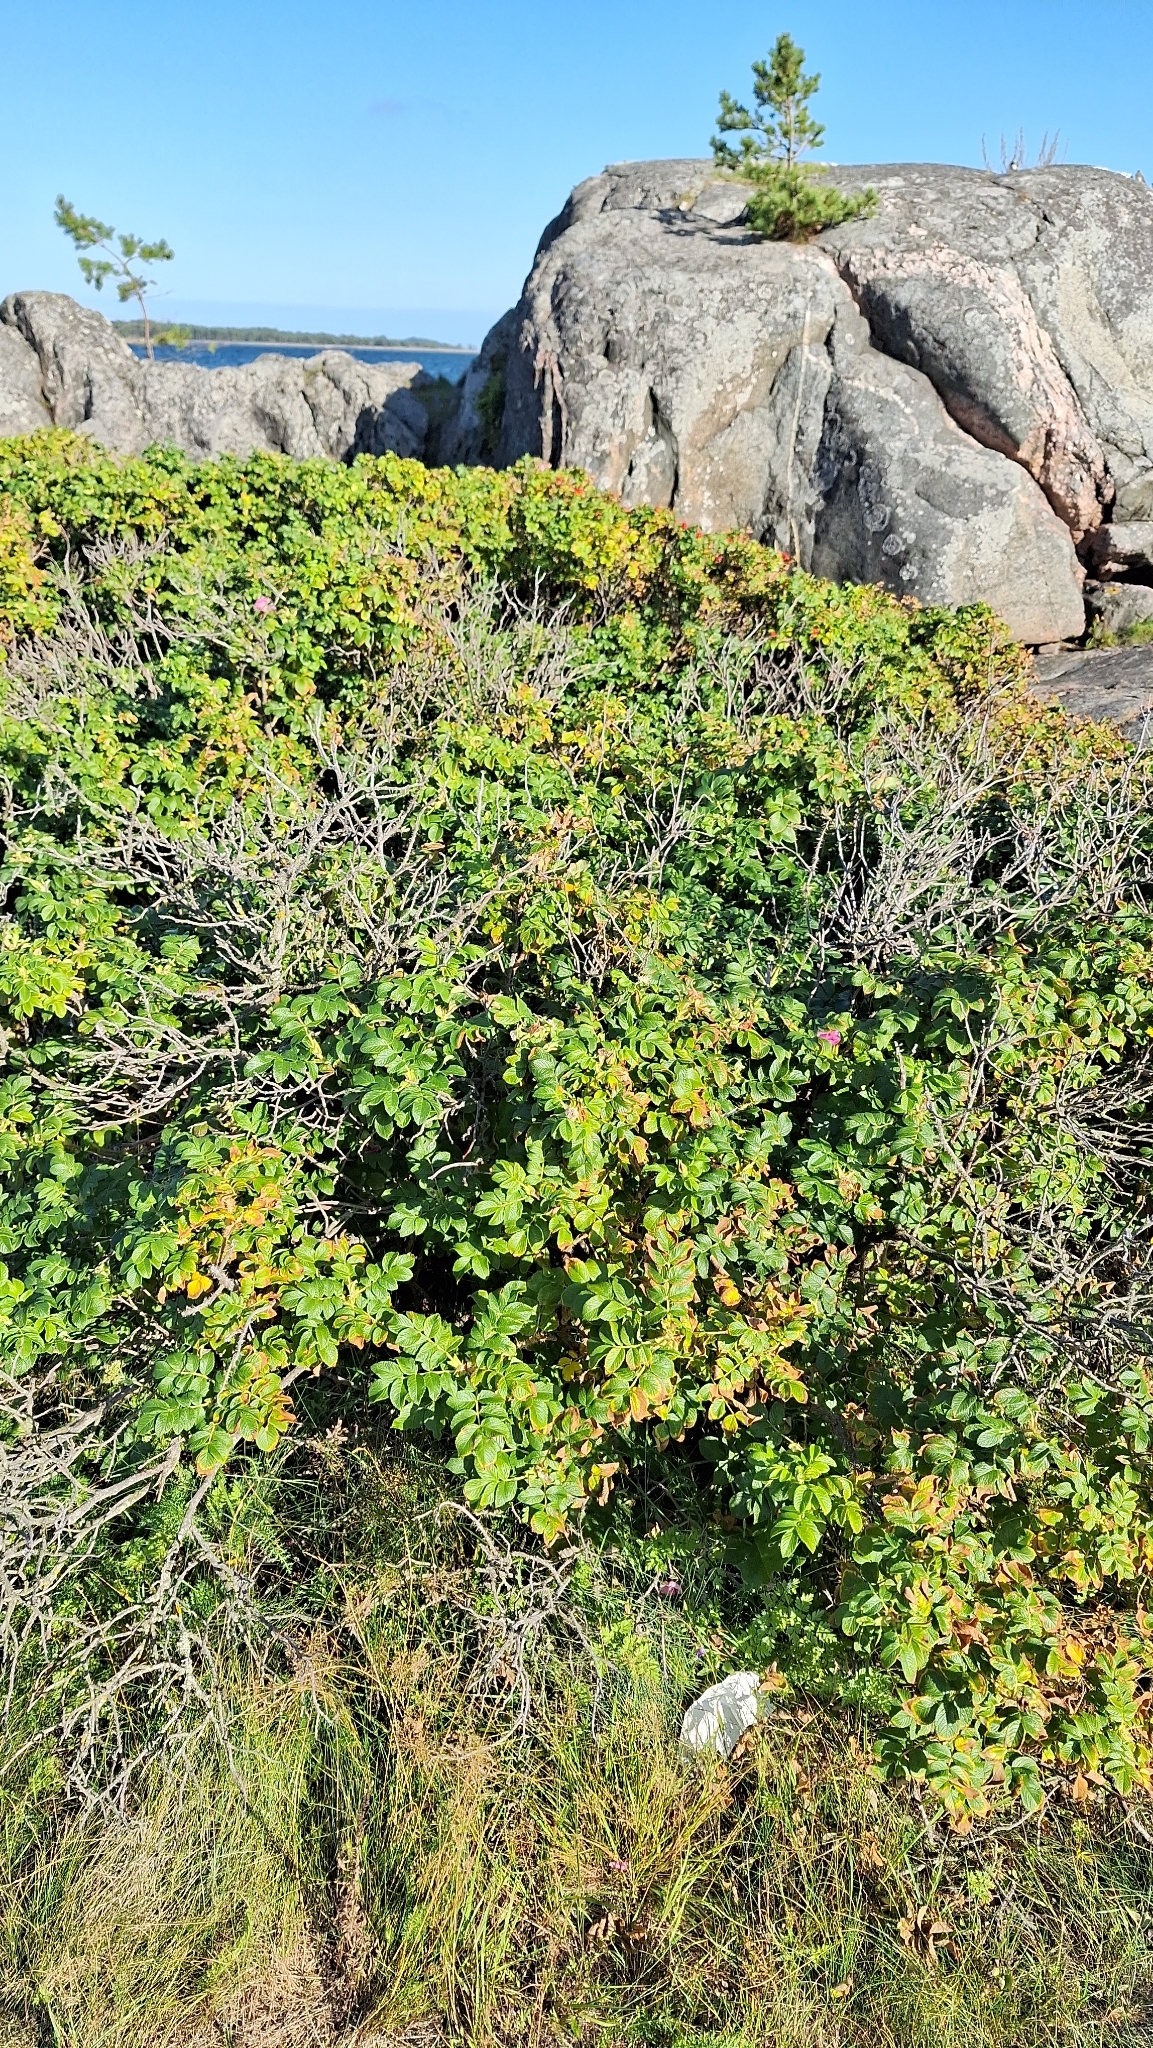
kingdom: Plantae
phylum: Tracheophyta
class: Magnoliopsida
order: Rosales
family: Rosaceae
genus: Rosa
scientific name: Rosa rugosa
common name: Japanese rose
